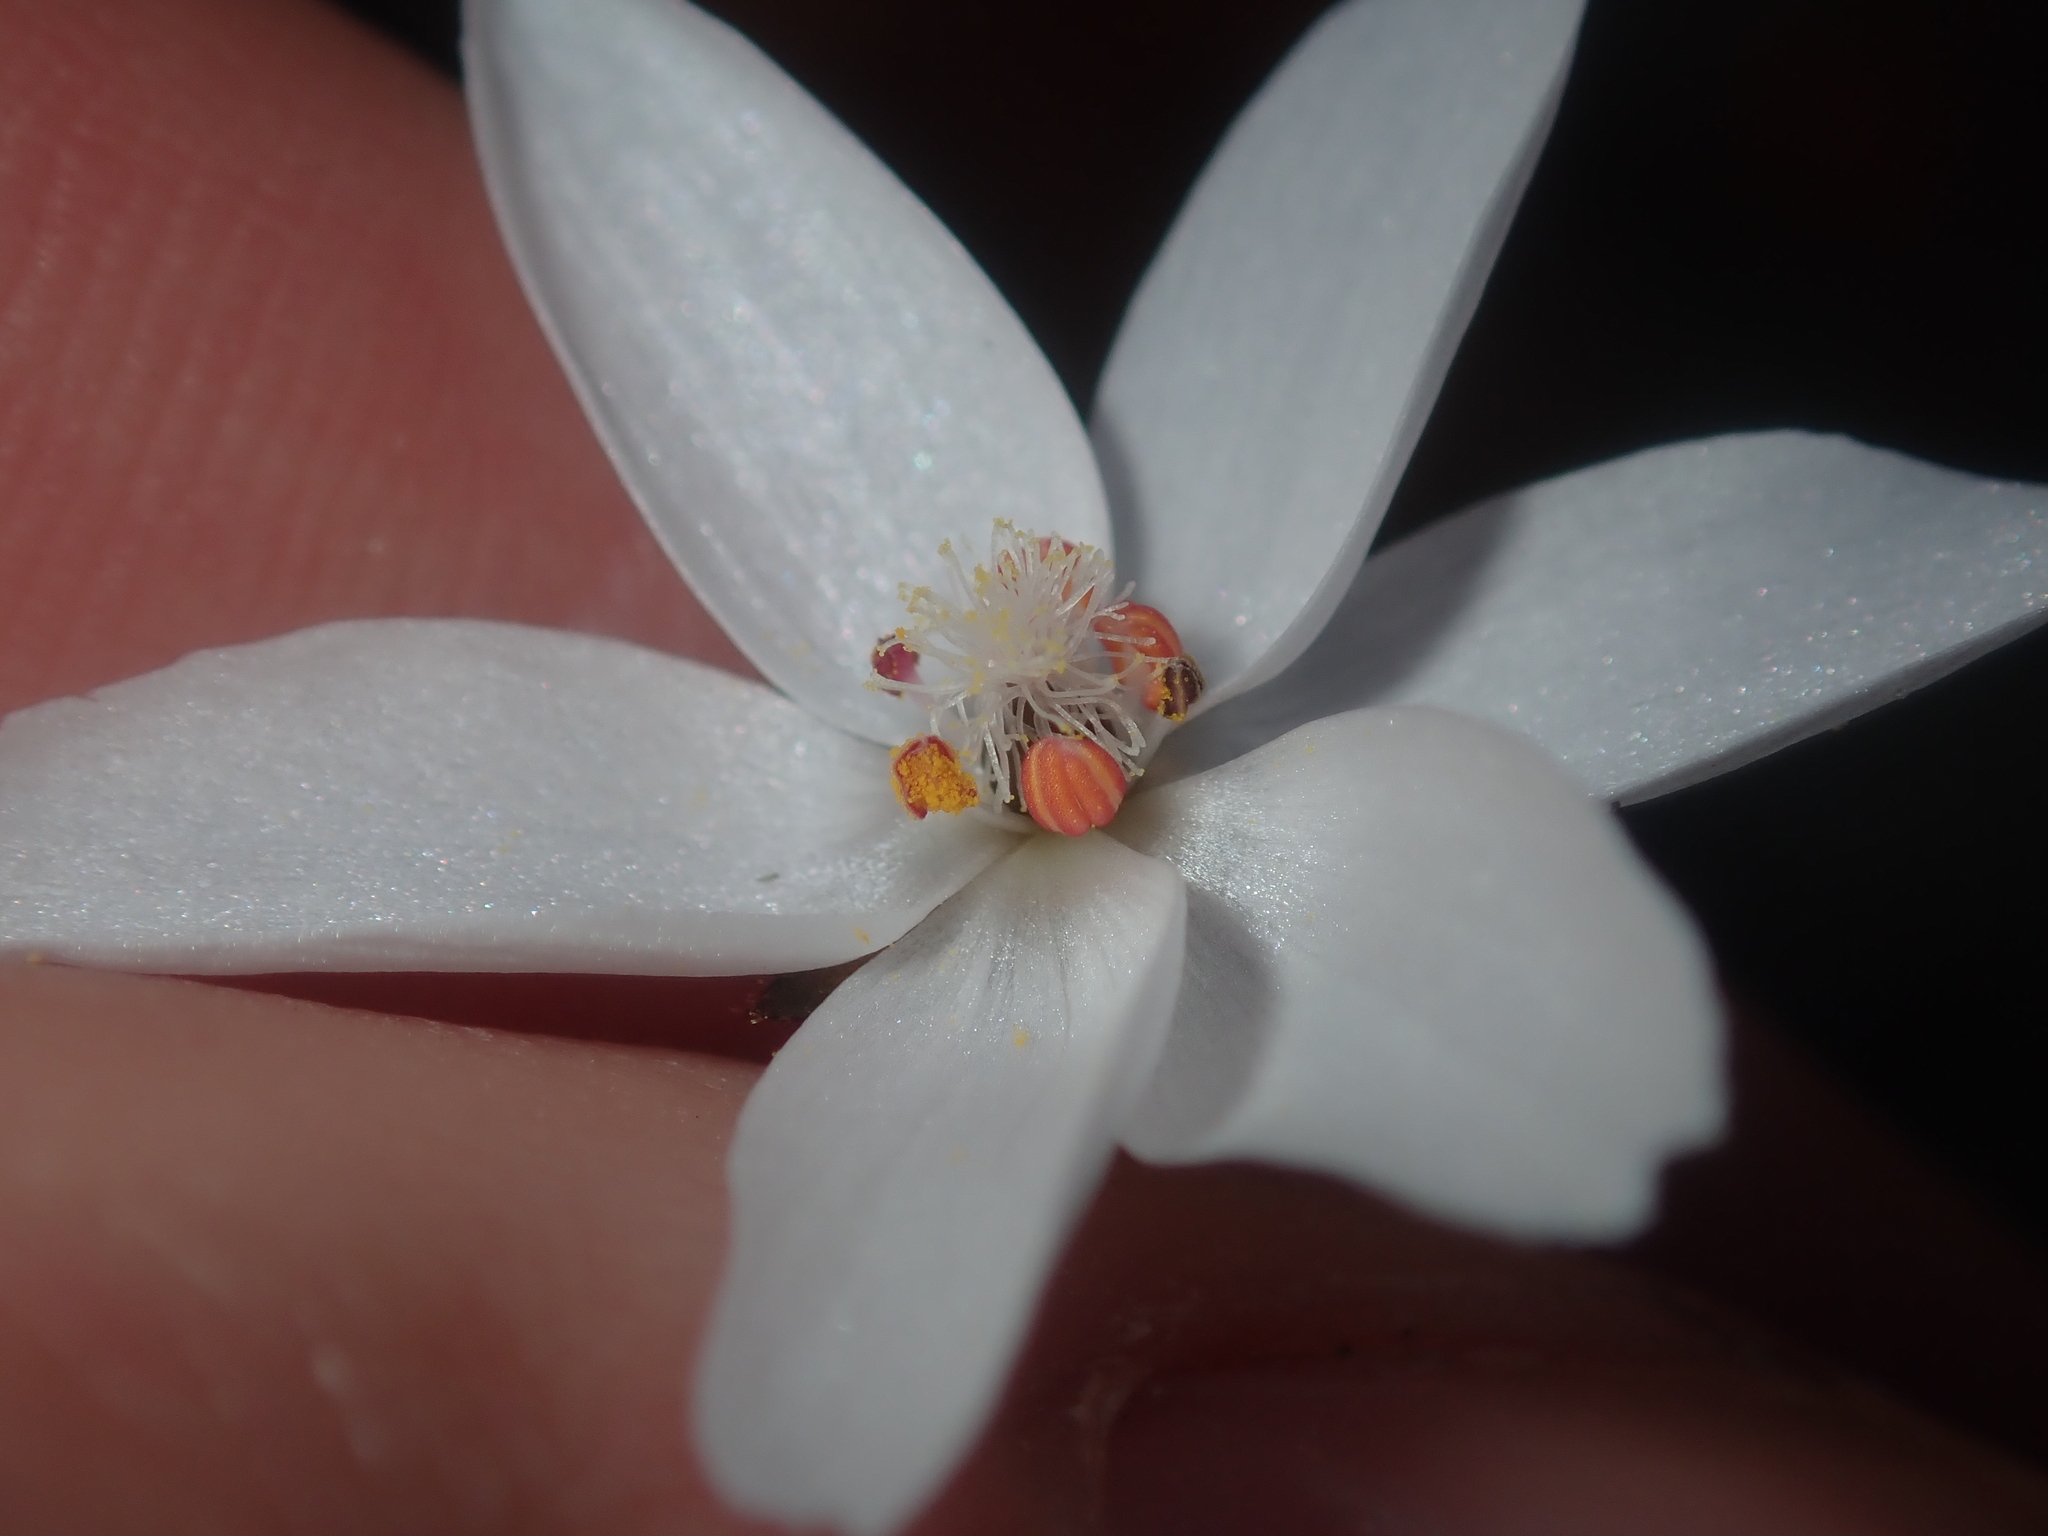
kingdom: Plantae
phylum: Tracheophyta
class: Magnoliopsida
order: Caryophyllales
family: Droseraceae
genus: Drosera
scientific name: Drosera marchantii
